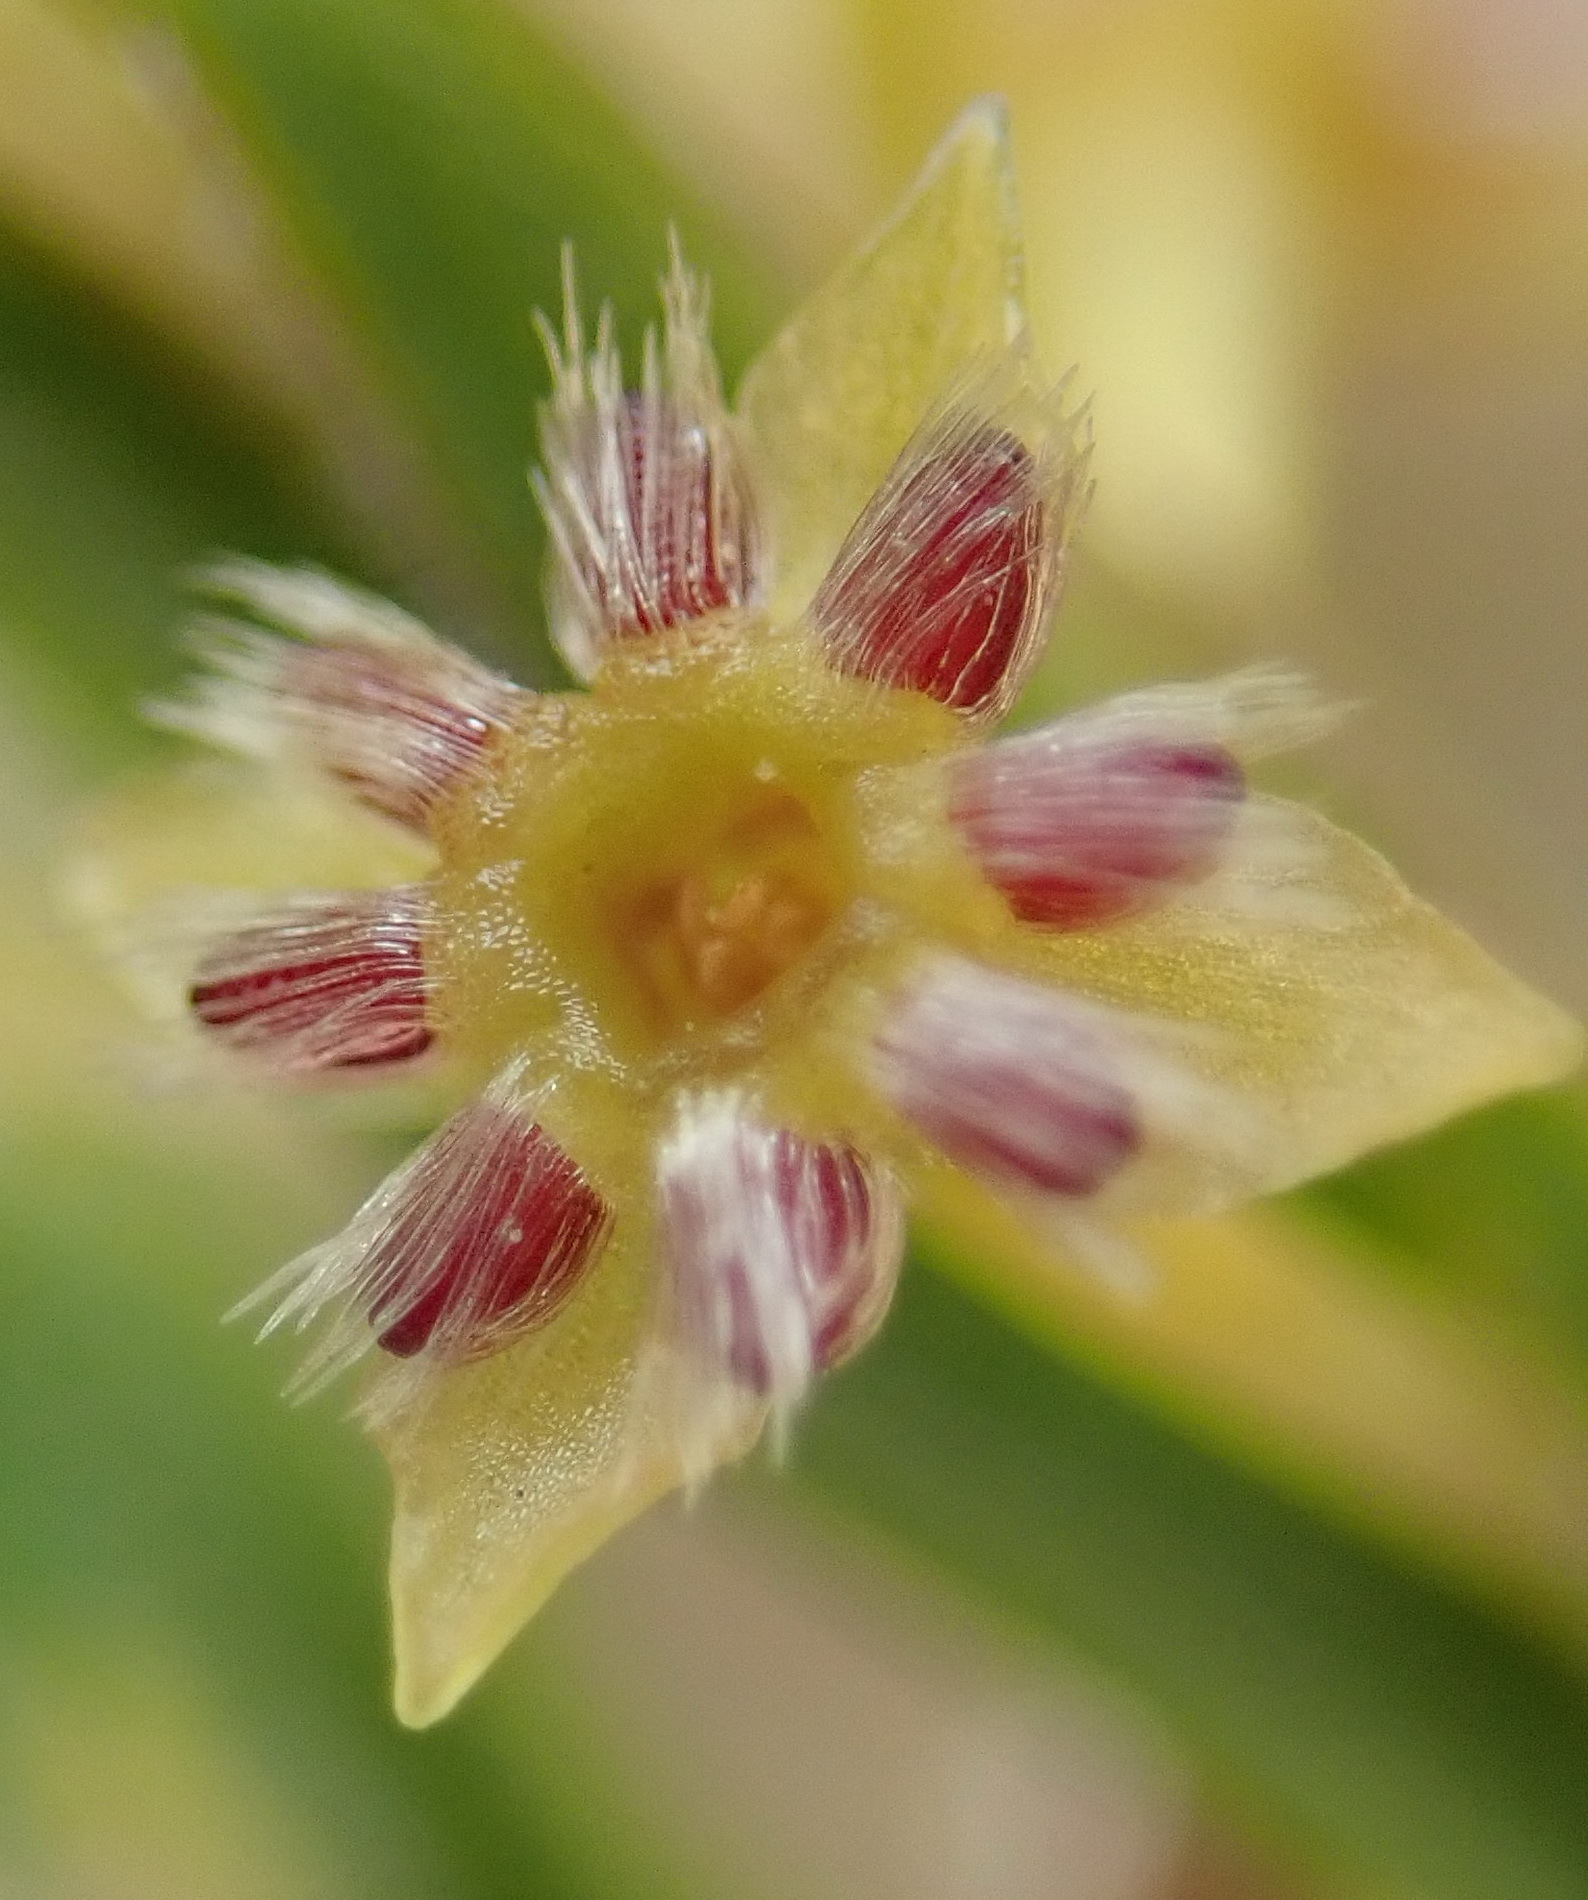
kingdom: Plantae
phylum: Tracheophyta
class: Magnoliopsida
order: Malvales
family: Thymelaeaceae
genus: Struthiola
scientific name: Struthiola parviflora
